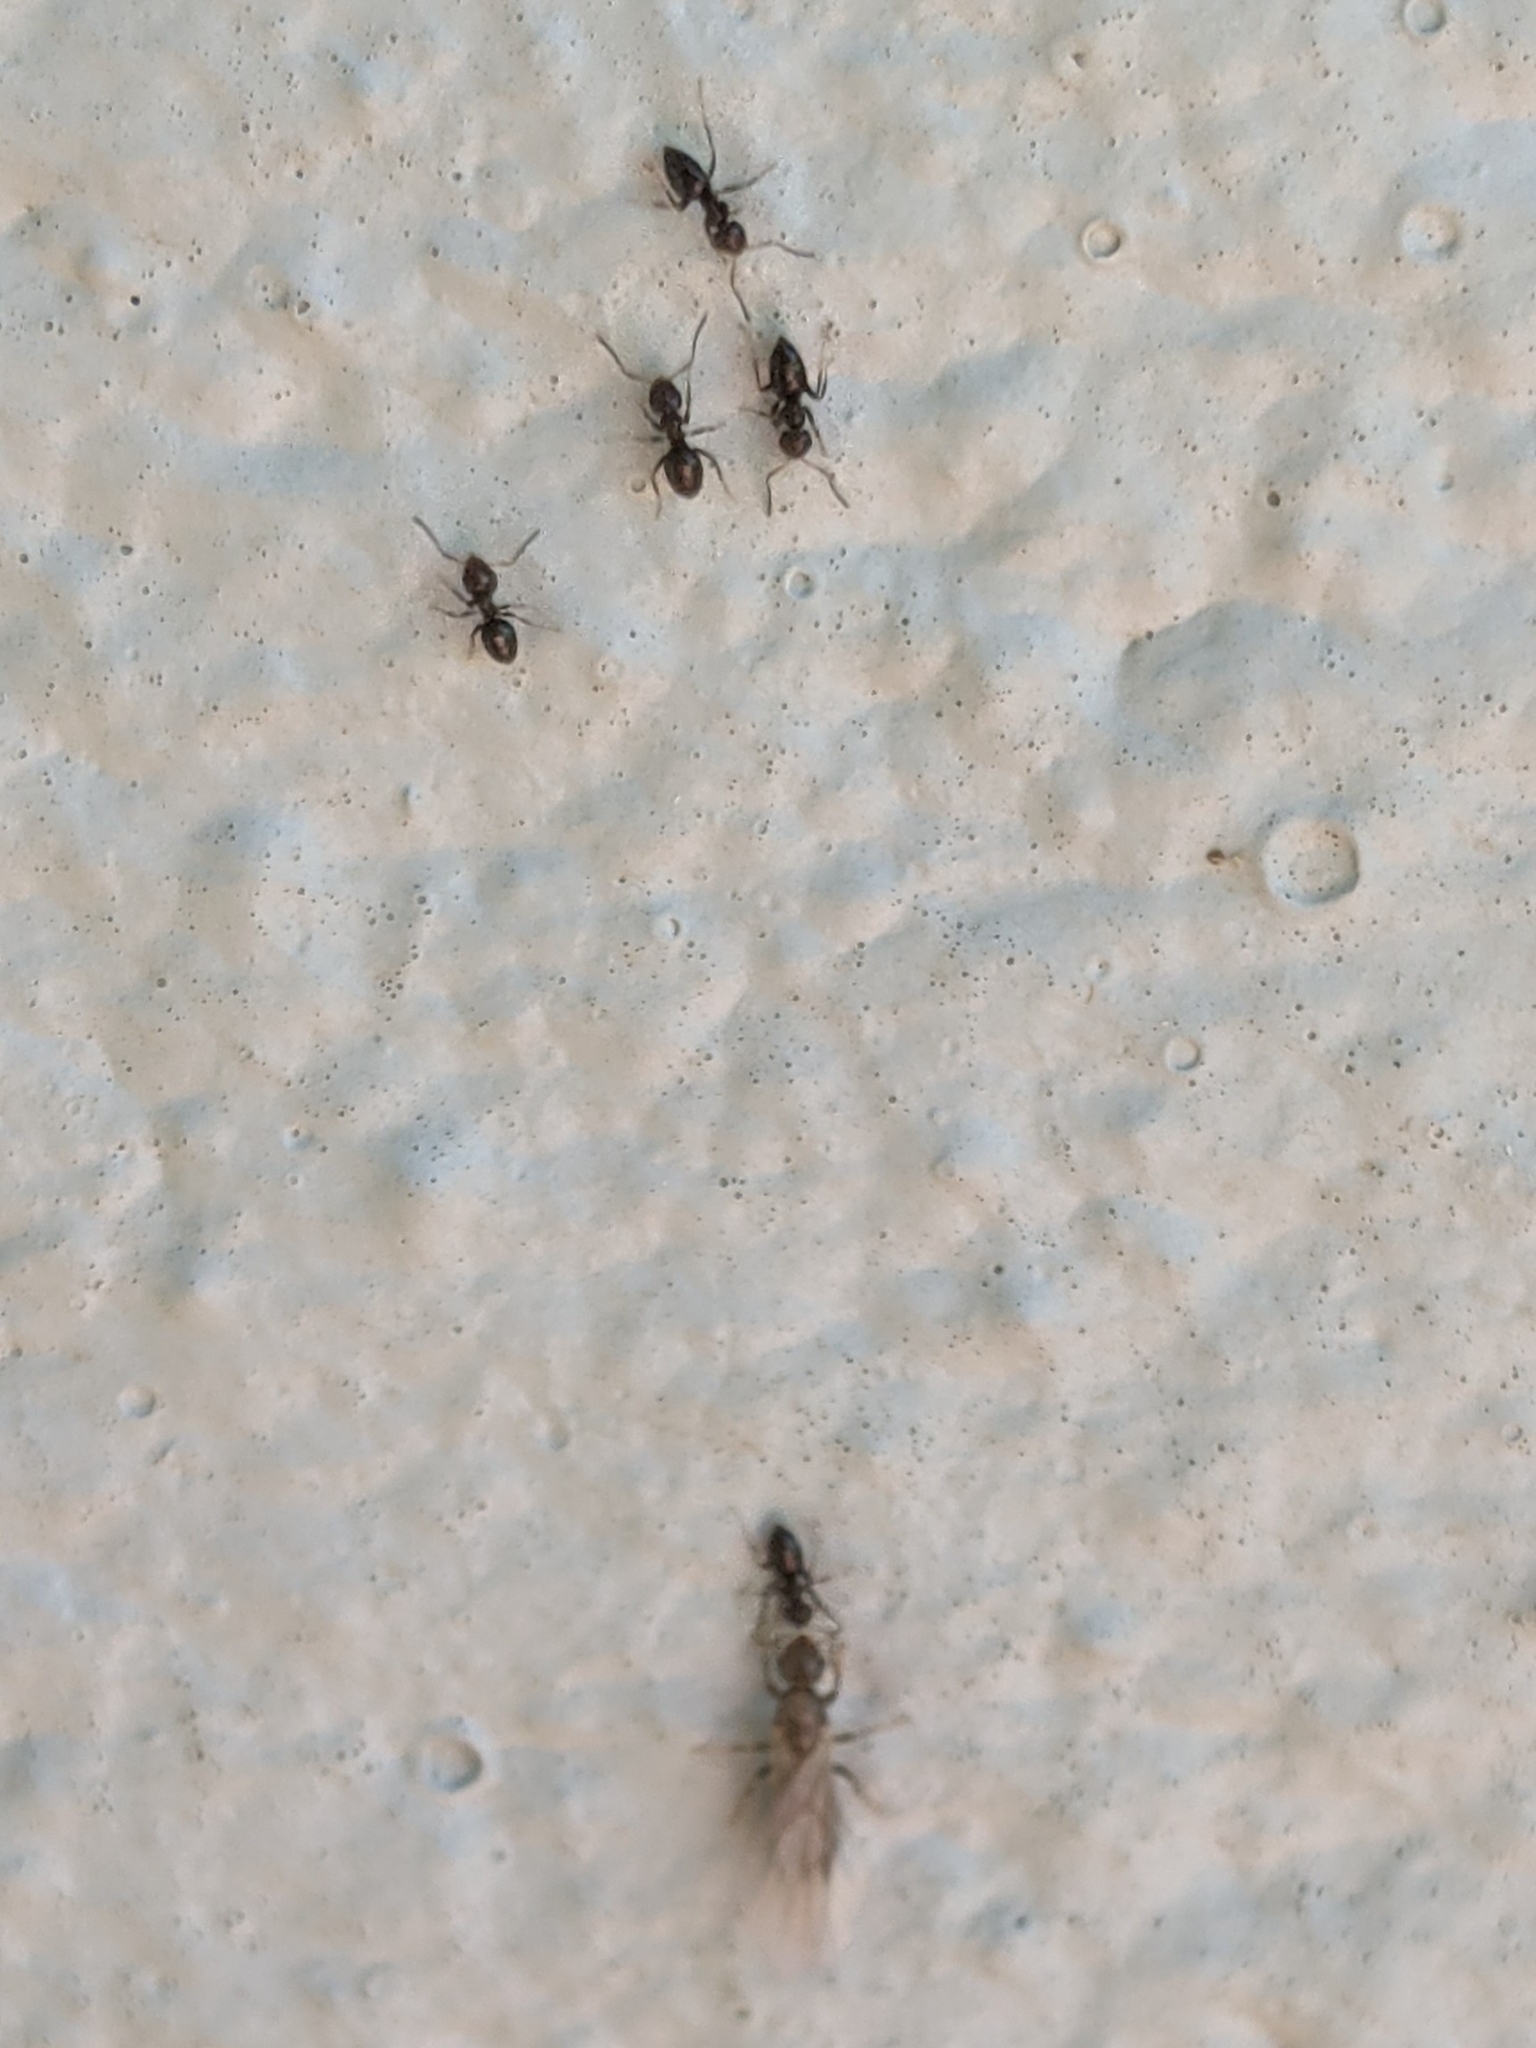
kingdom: Animalia
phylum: Arthropoda
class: Insecta
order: Hymenoptera
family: Formicidae
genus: Brachymyrmex
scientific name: Brachymyrmex patagonicus
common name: Dark rover ant
